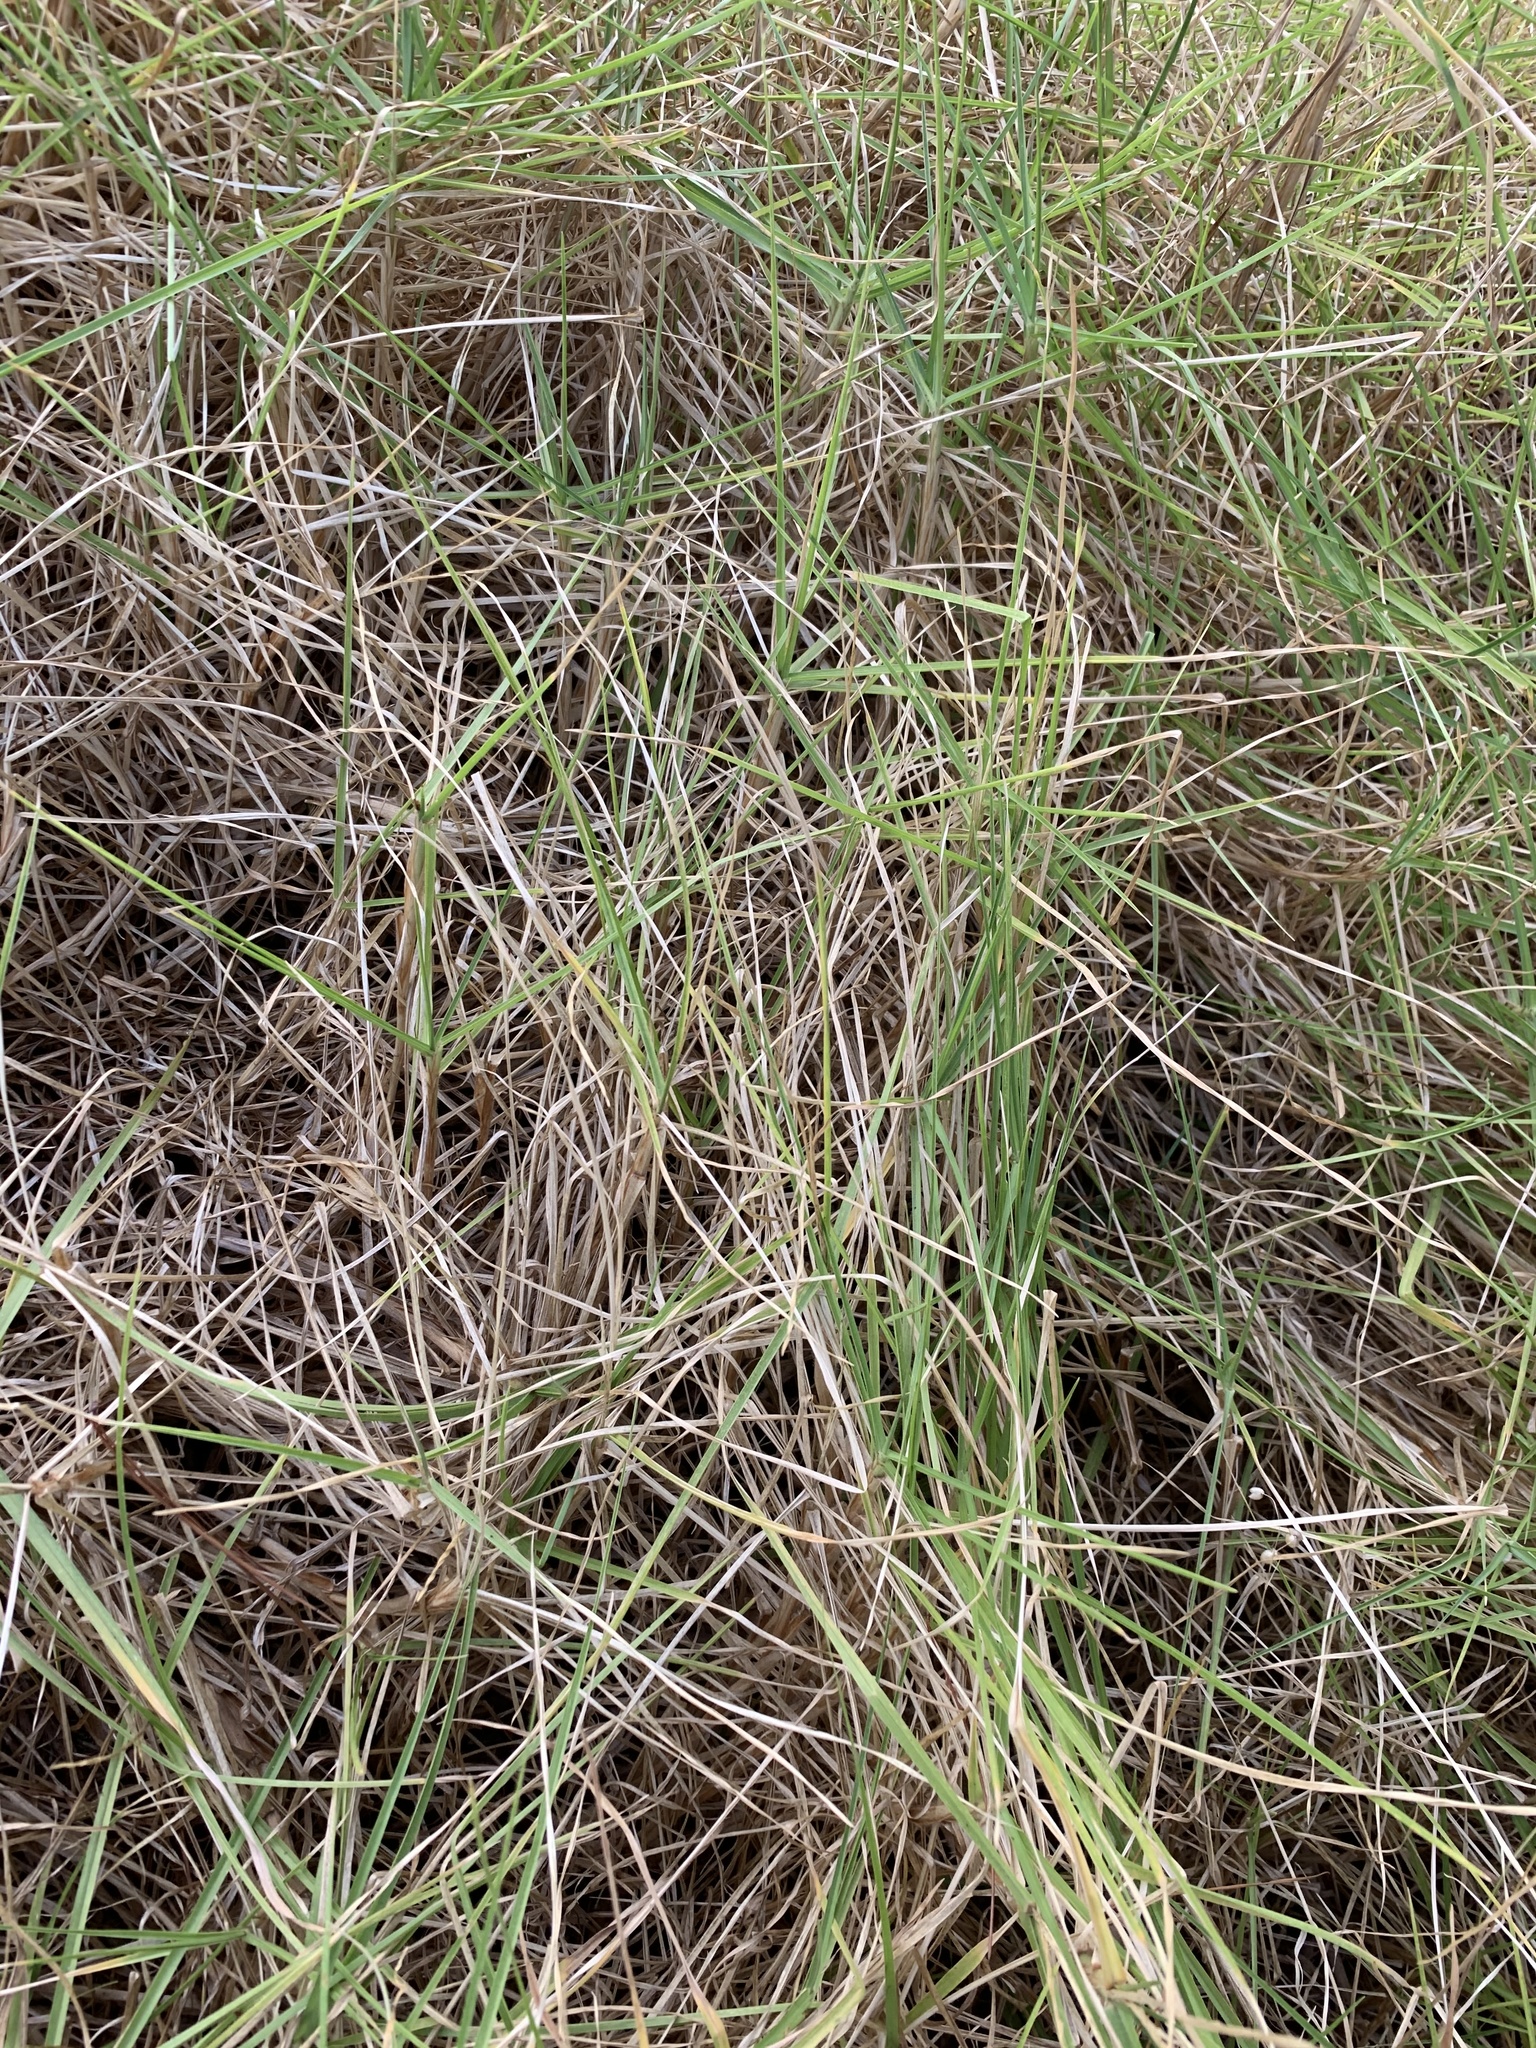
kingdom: Plantae
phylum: Tracheophyta
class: Liliopsida
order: Poales
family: Poaceae
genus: Cenchrus
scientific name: Cenchrus clandestinus
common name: Kikuyugrass
